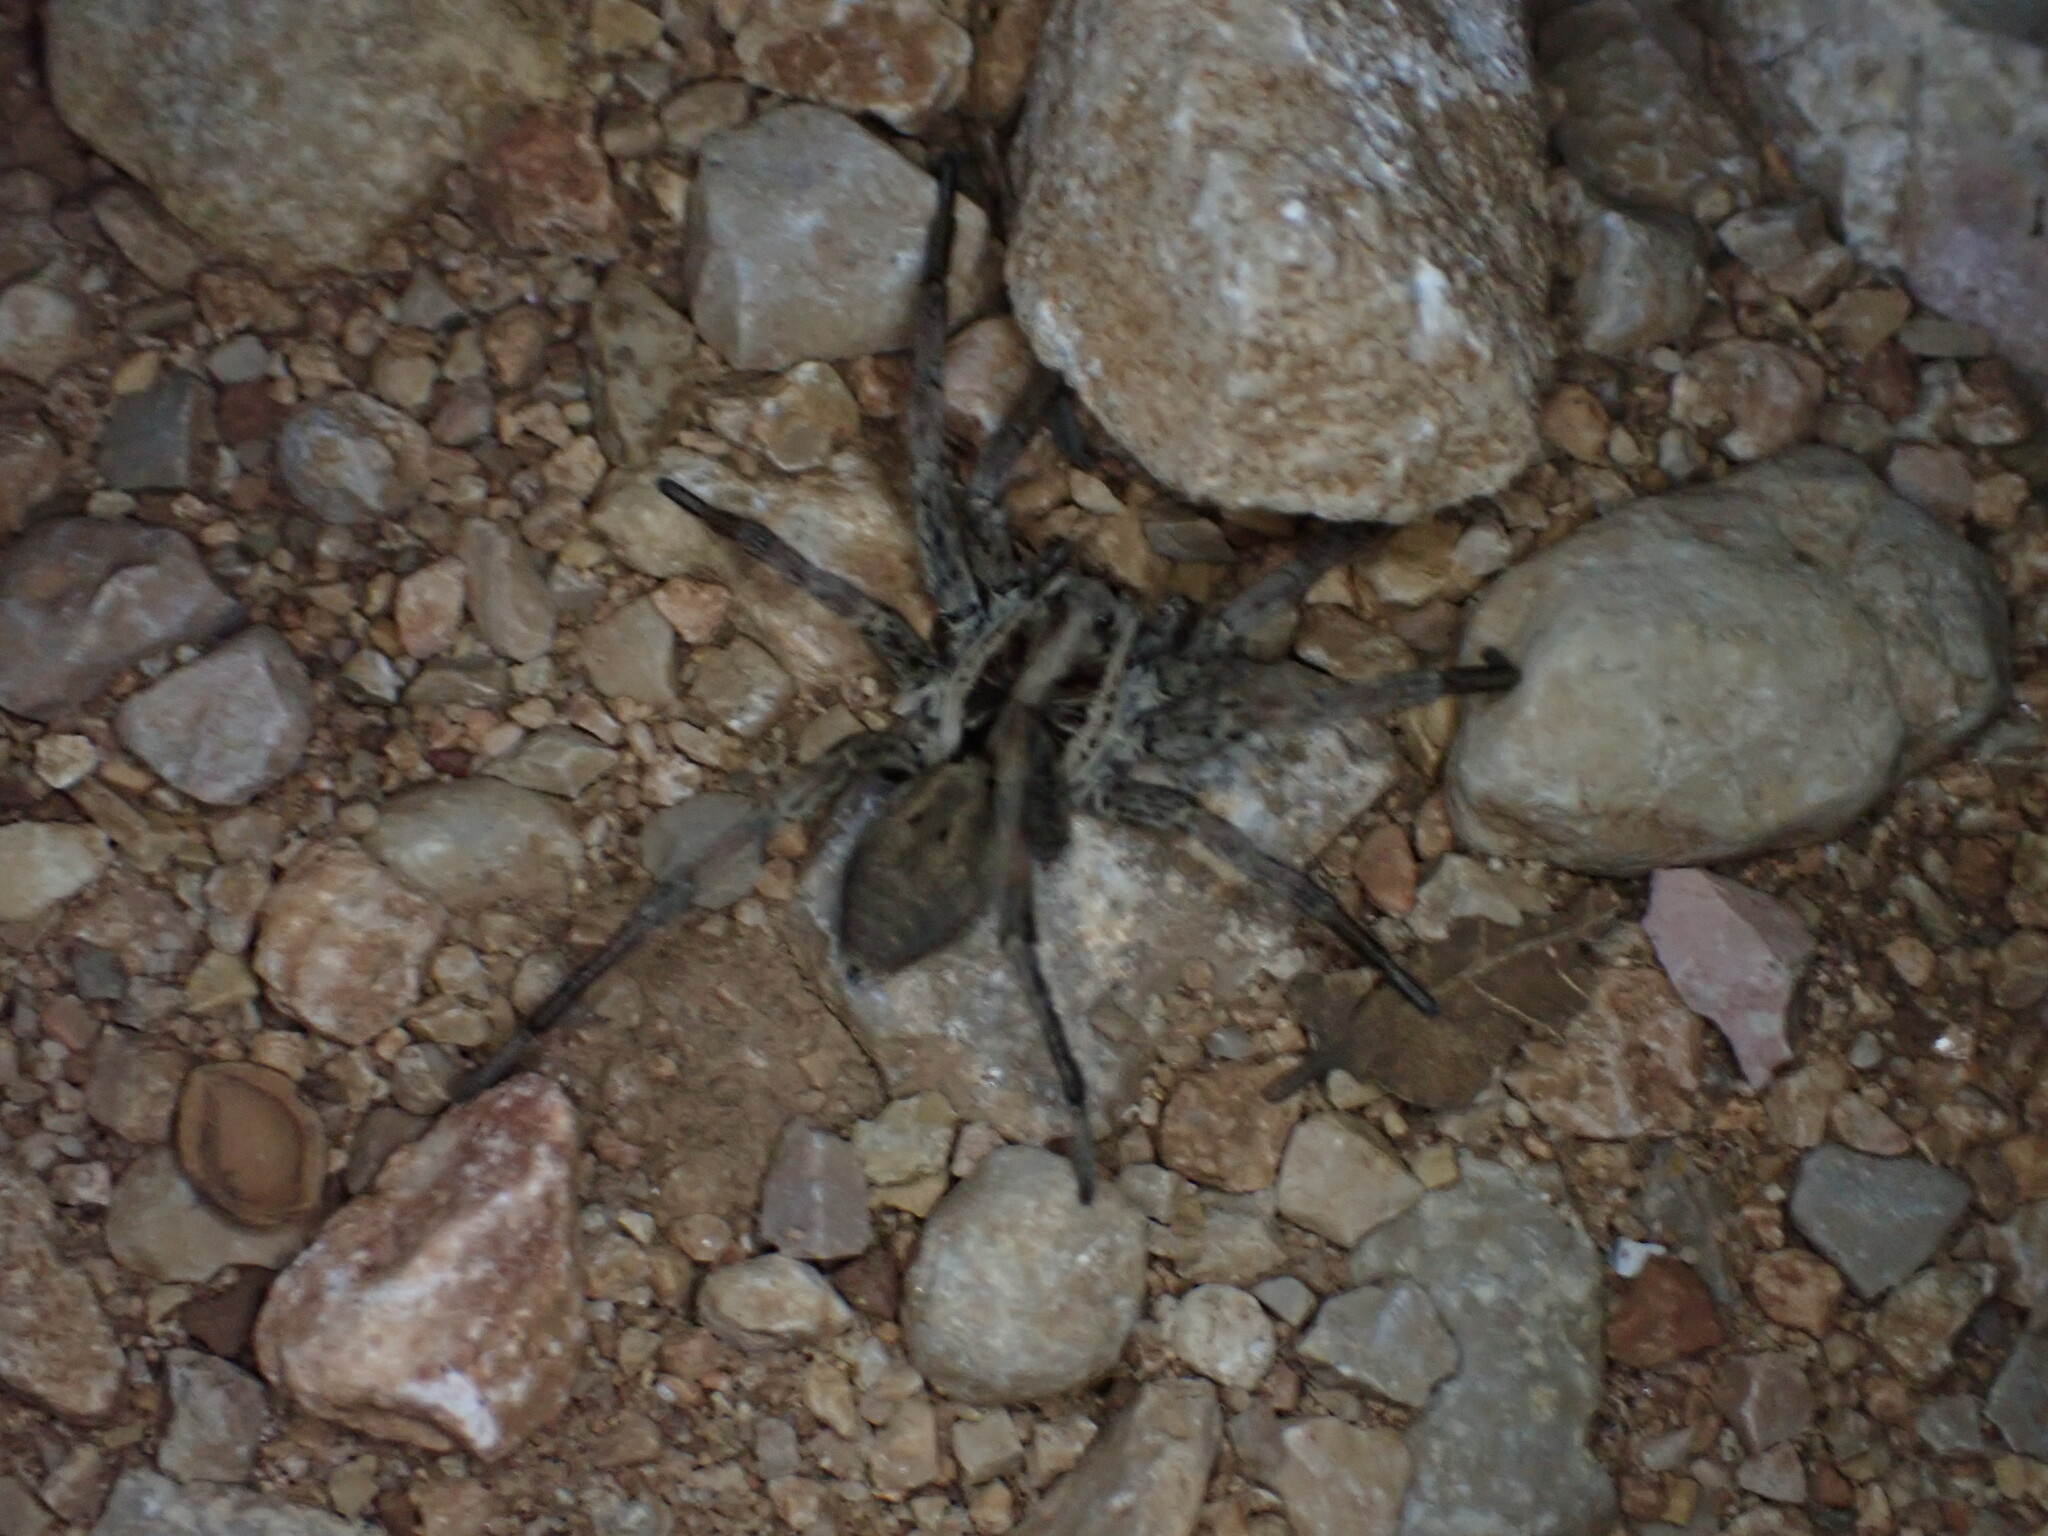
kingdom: Animalia
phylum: Arthropoda
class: Arachnida
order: Araneae
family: Lycosidae
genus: Hogna
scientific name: Hogna radiata
